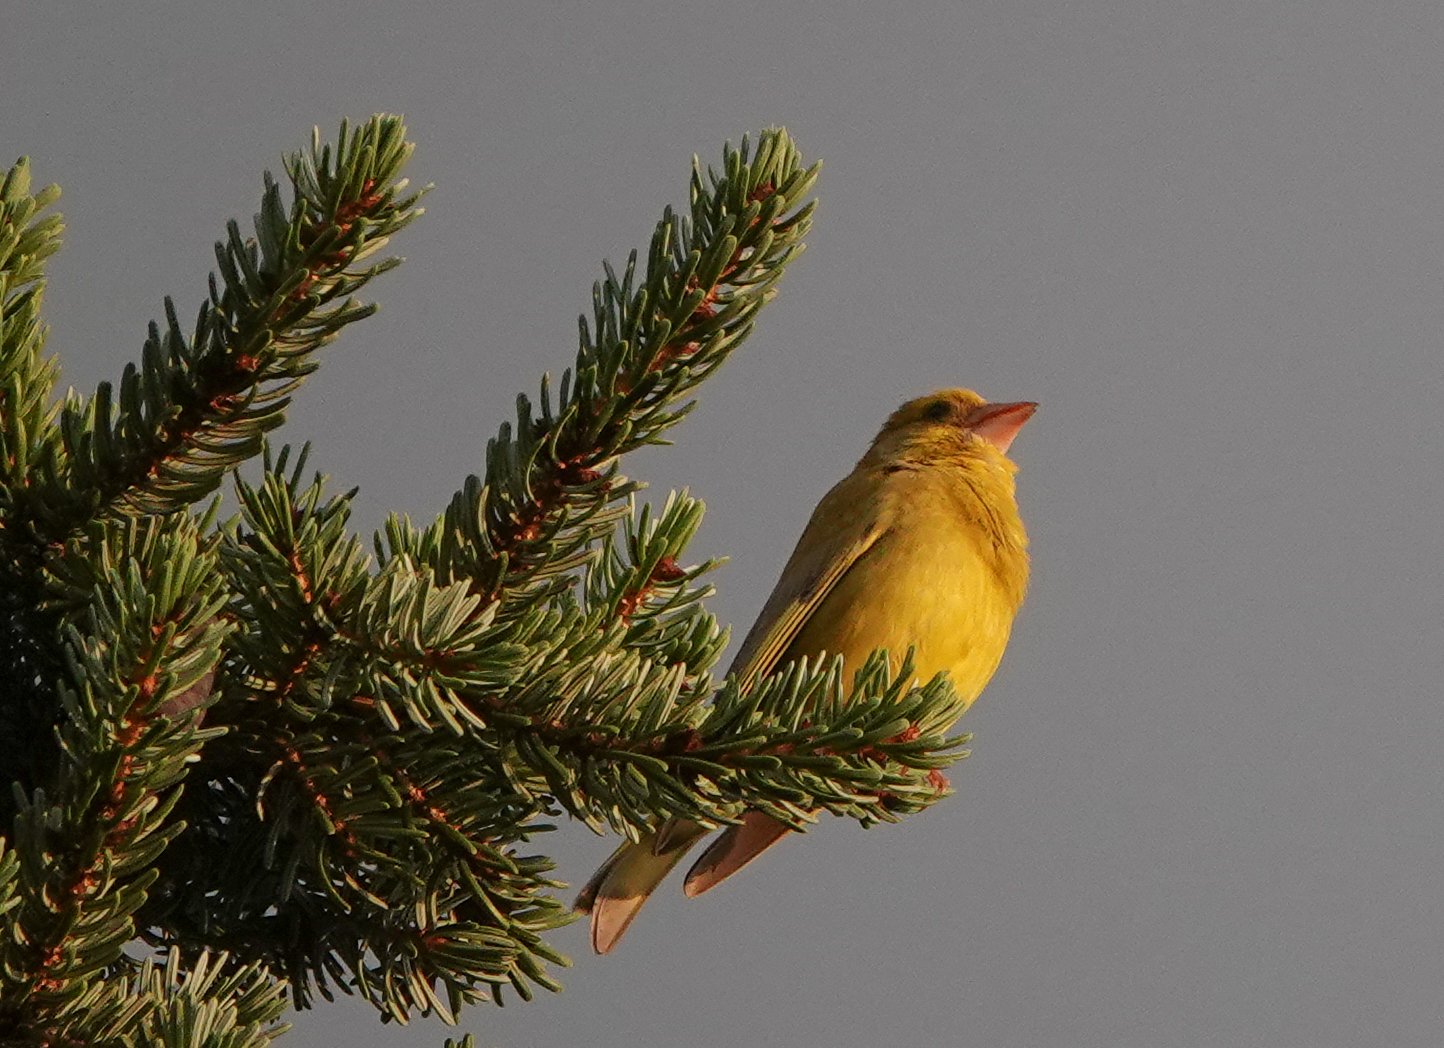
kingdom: Plantae
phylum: Tracheophyta
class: Liliopsida
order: Poales
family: Poaceae
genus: Chloris
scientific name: Chloris chloris
